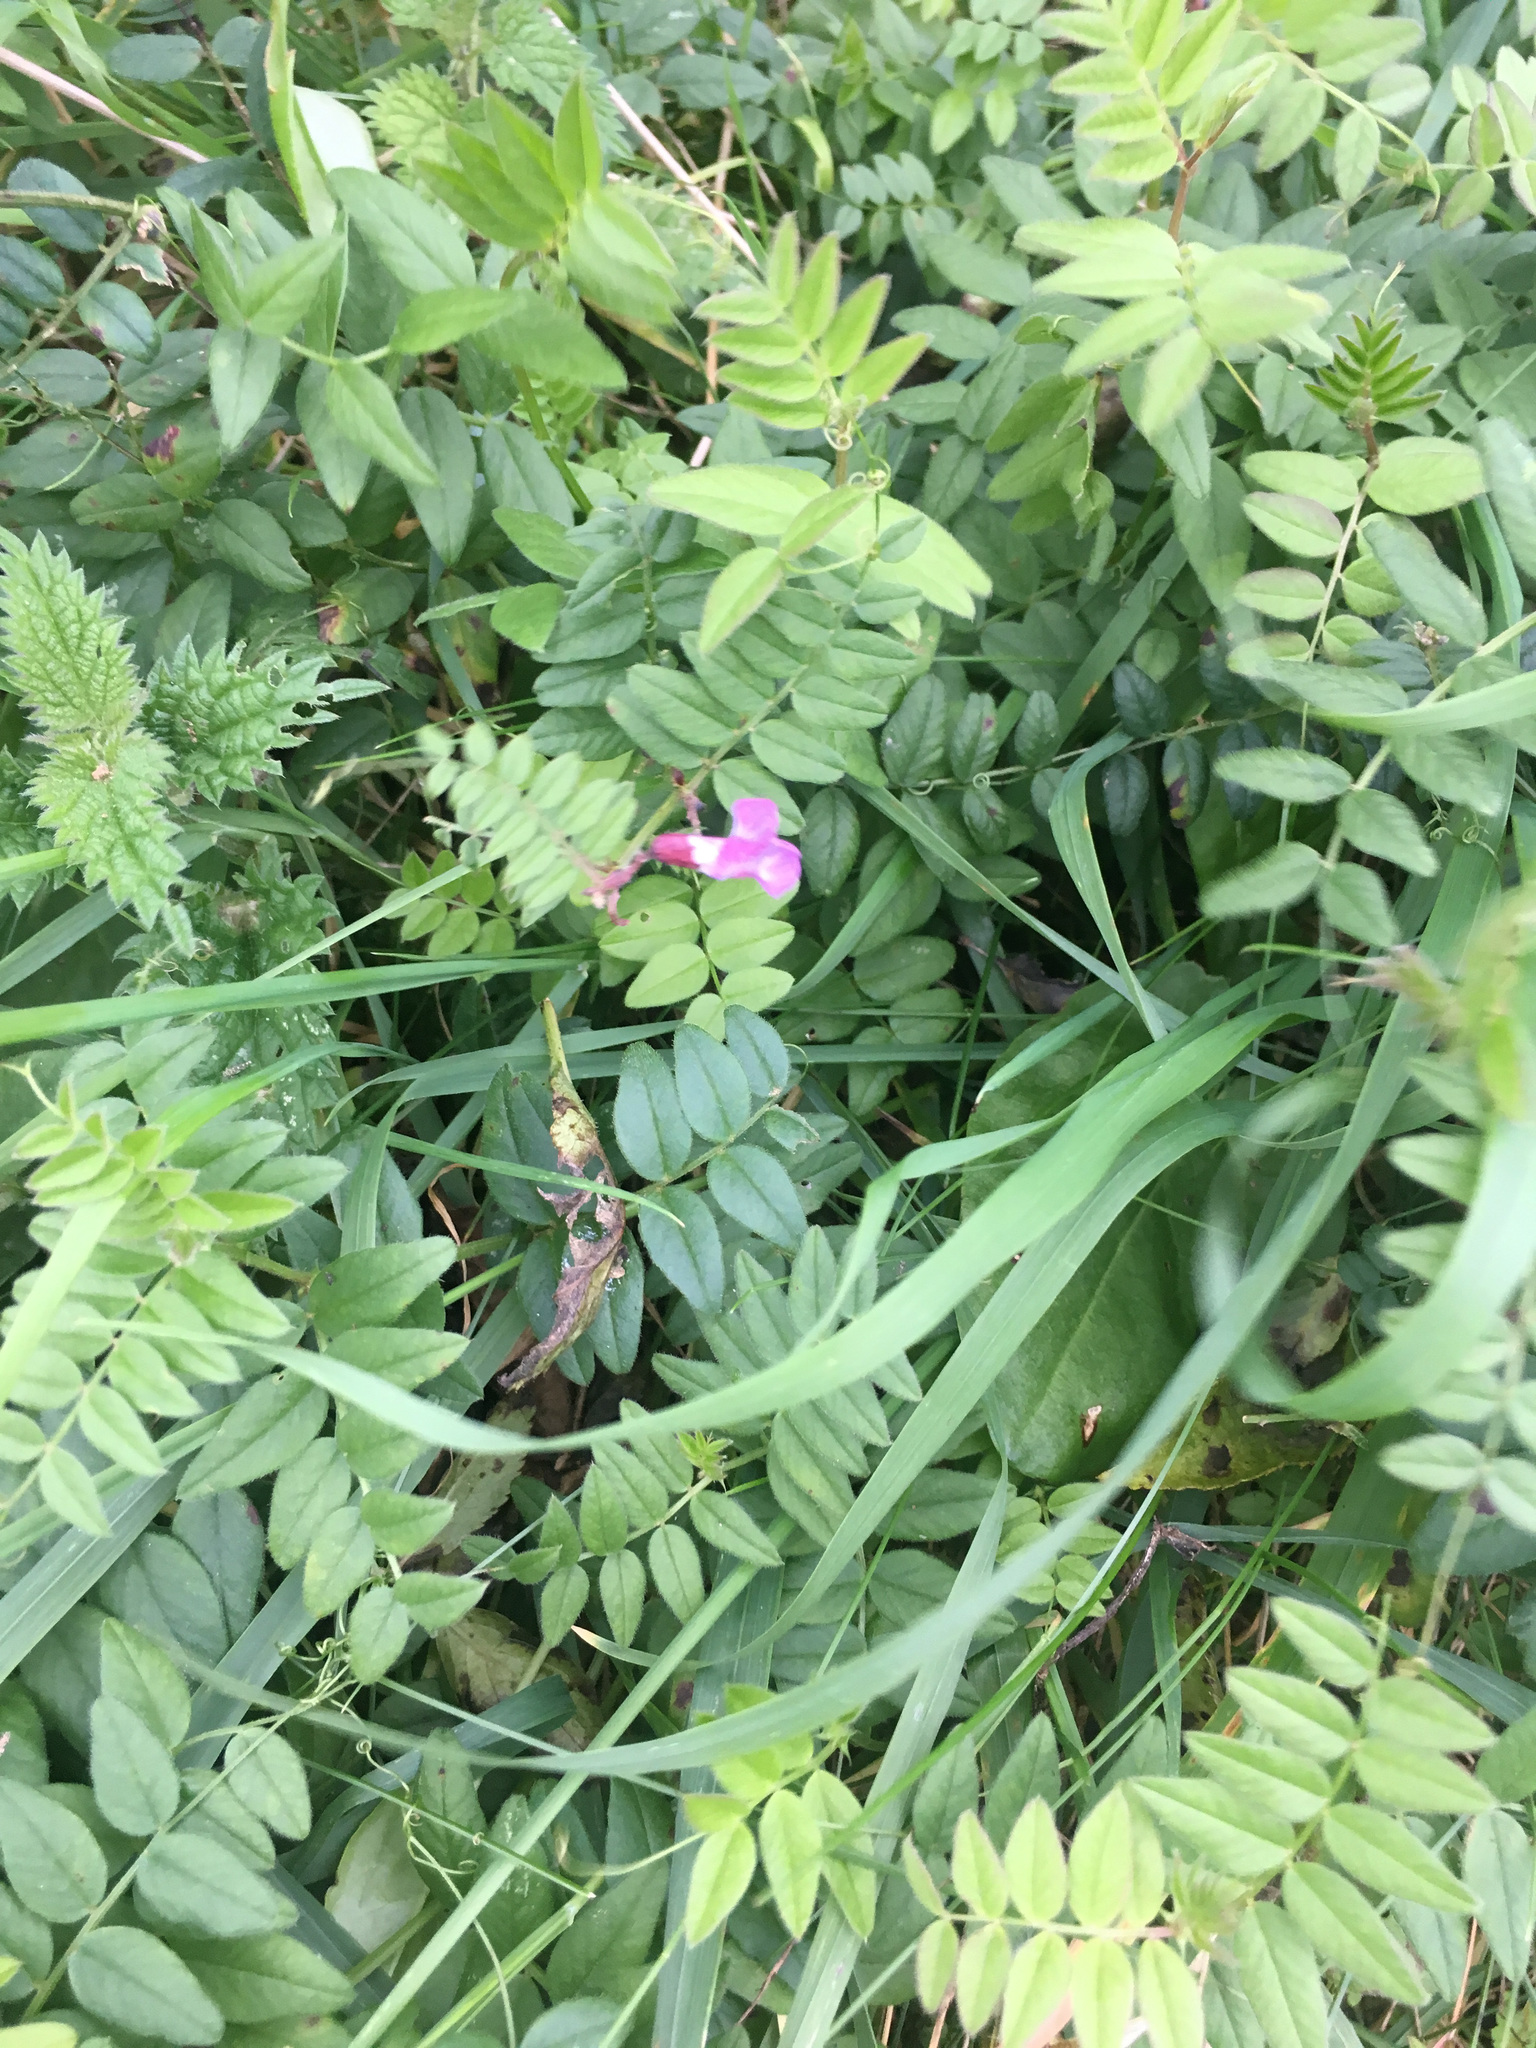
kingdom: Plantae
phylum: Tracheophyta
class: Magnoliopsida
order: Fabales
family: Fabaceae
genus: Vicia
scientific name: Vicia sepium
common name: Bush vetch
